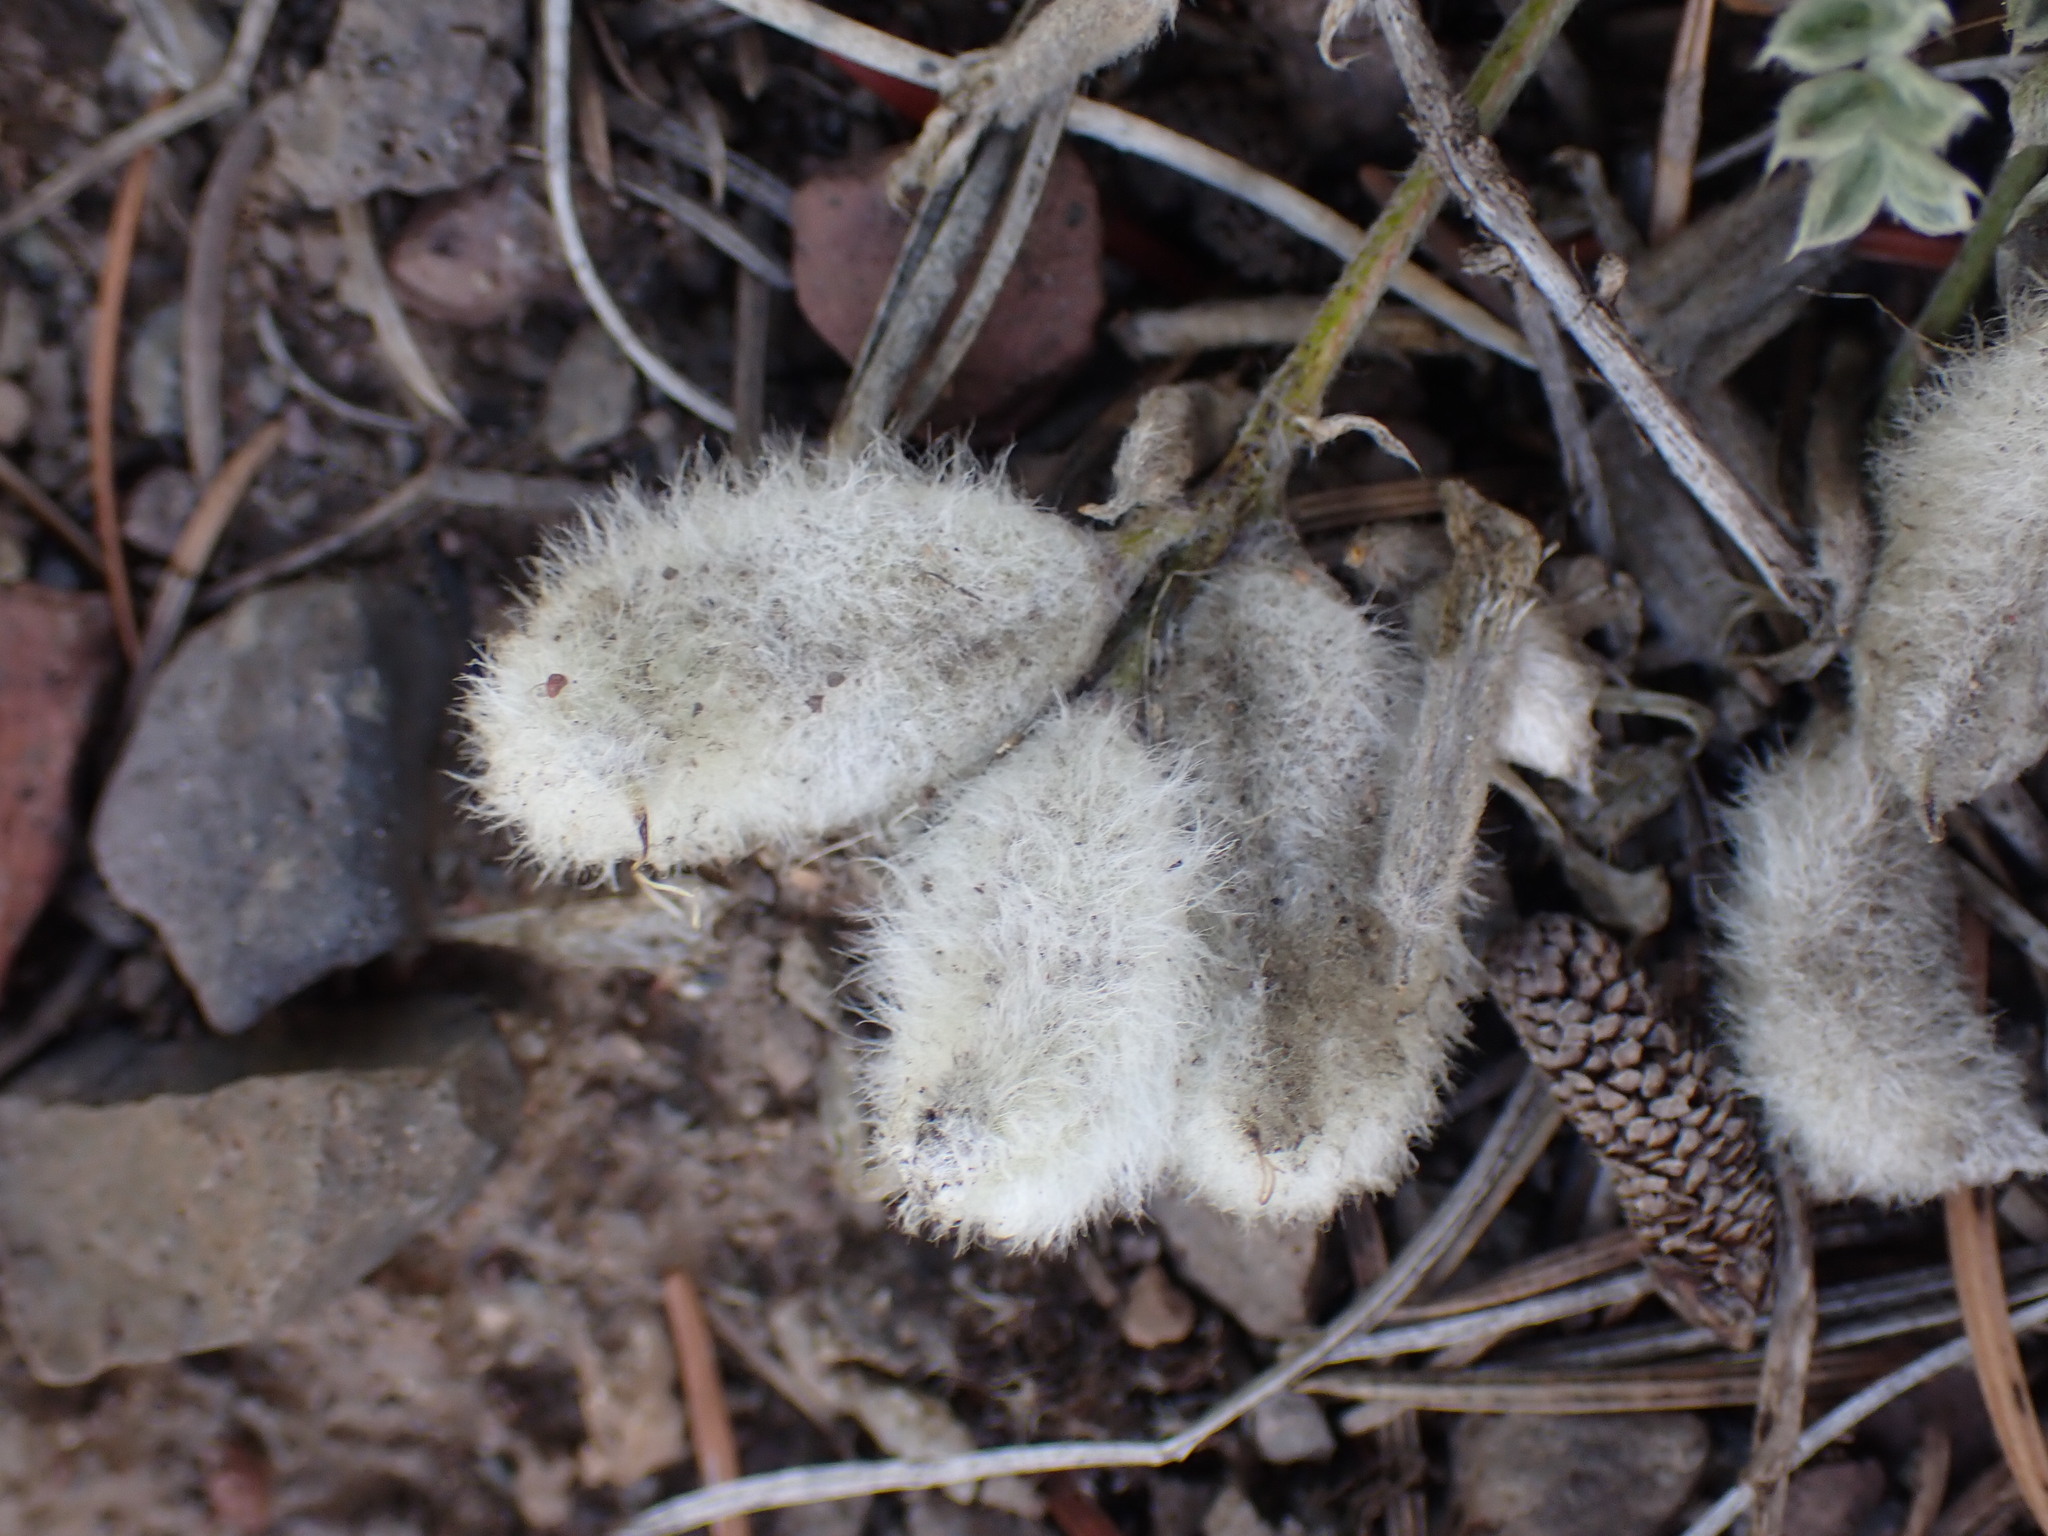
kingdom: Plantae
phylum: Tracheophyta
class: Magnoliopsida
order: Fabales
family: Fabaceae
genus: Astragalus
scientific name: Astragalus purshii
